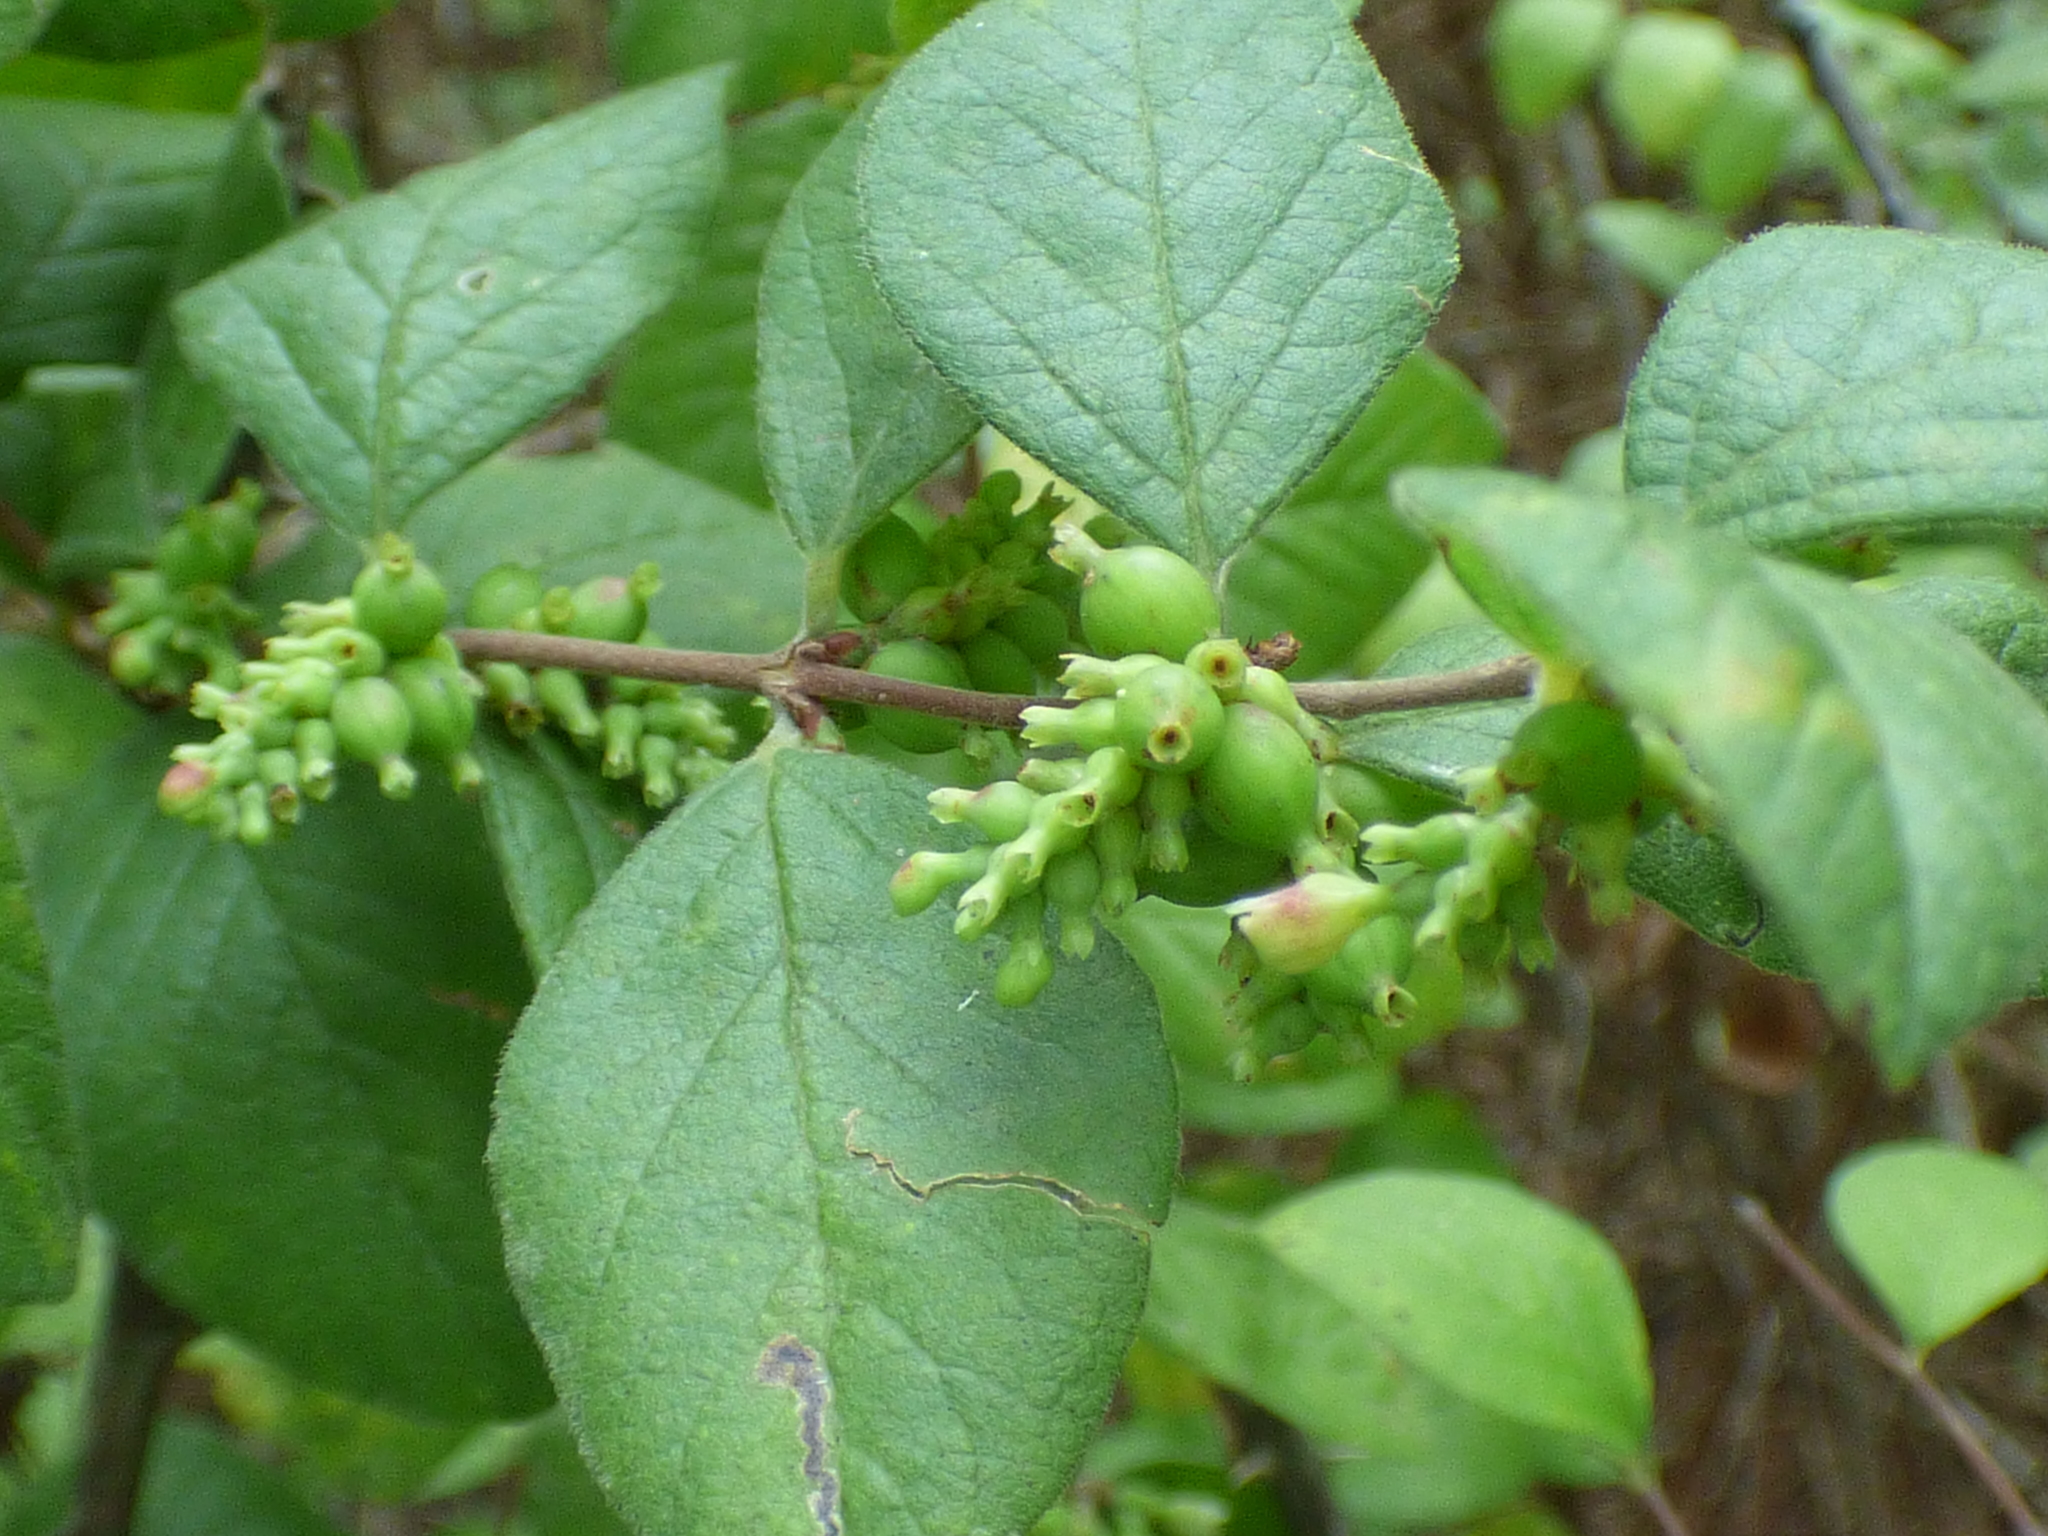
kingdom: Plantae
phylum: Tracheophyta
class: Magnoliopsida
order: Dipsacales
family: Caprifoliaceae
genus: Symphoricarpos
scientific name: Symphoricarpos orbiculatus
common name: Coralberry
